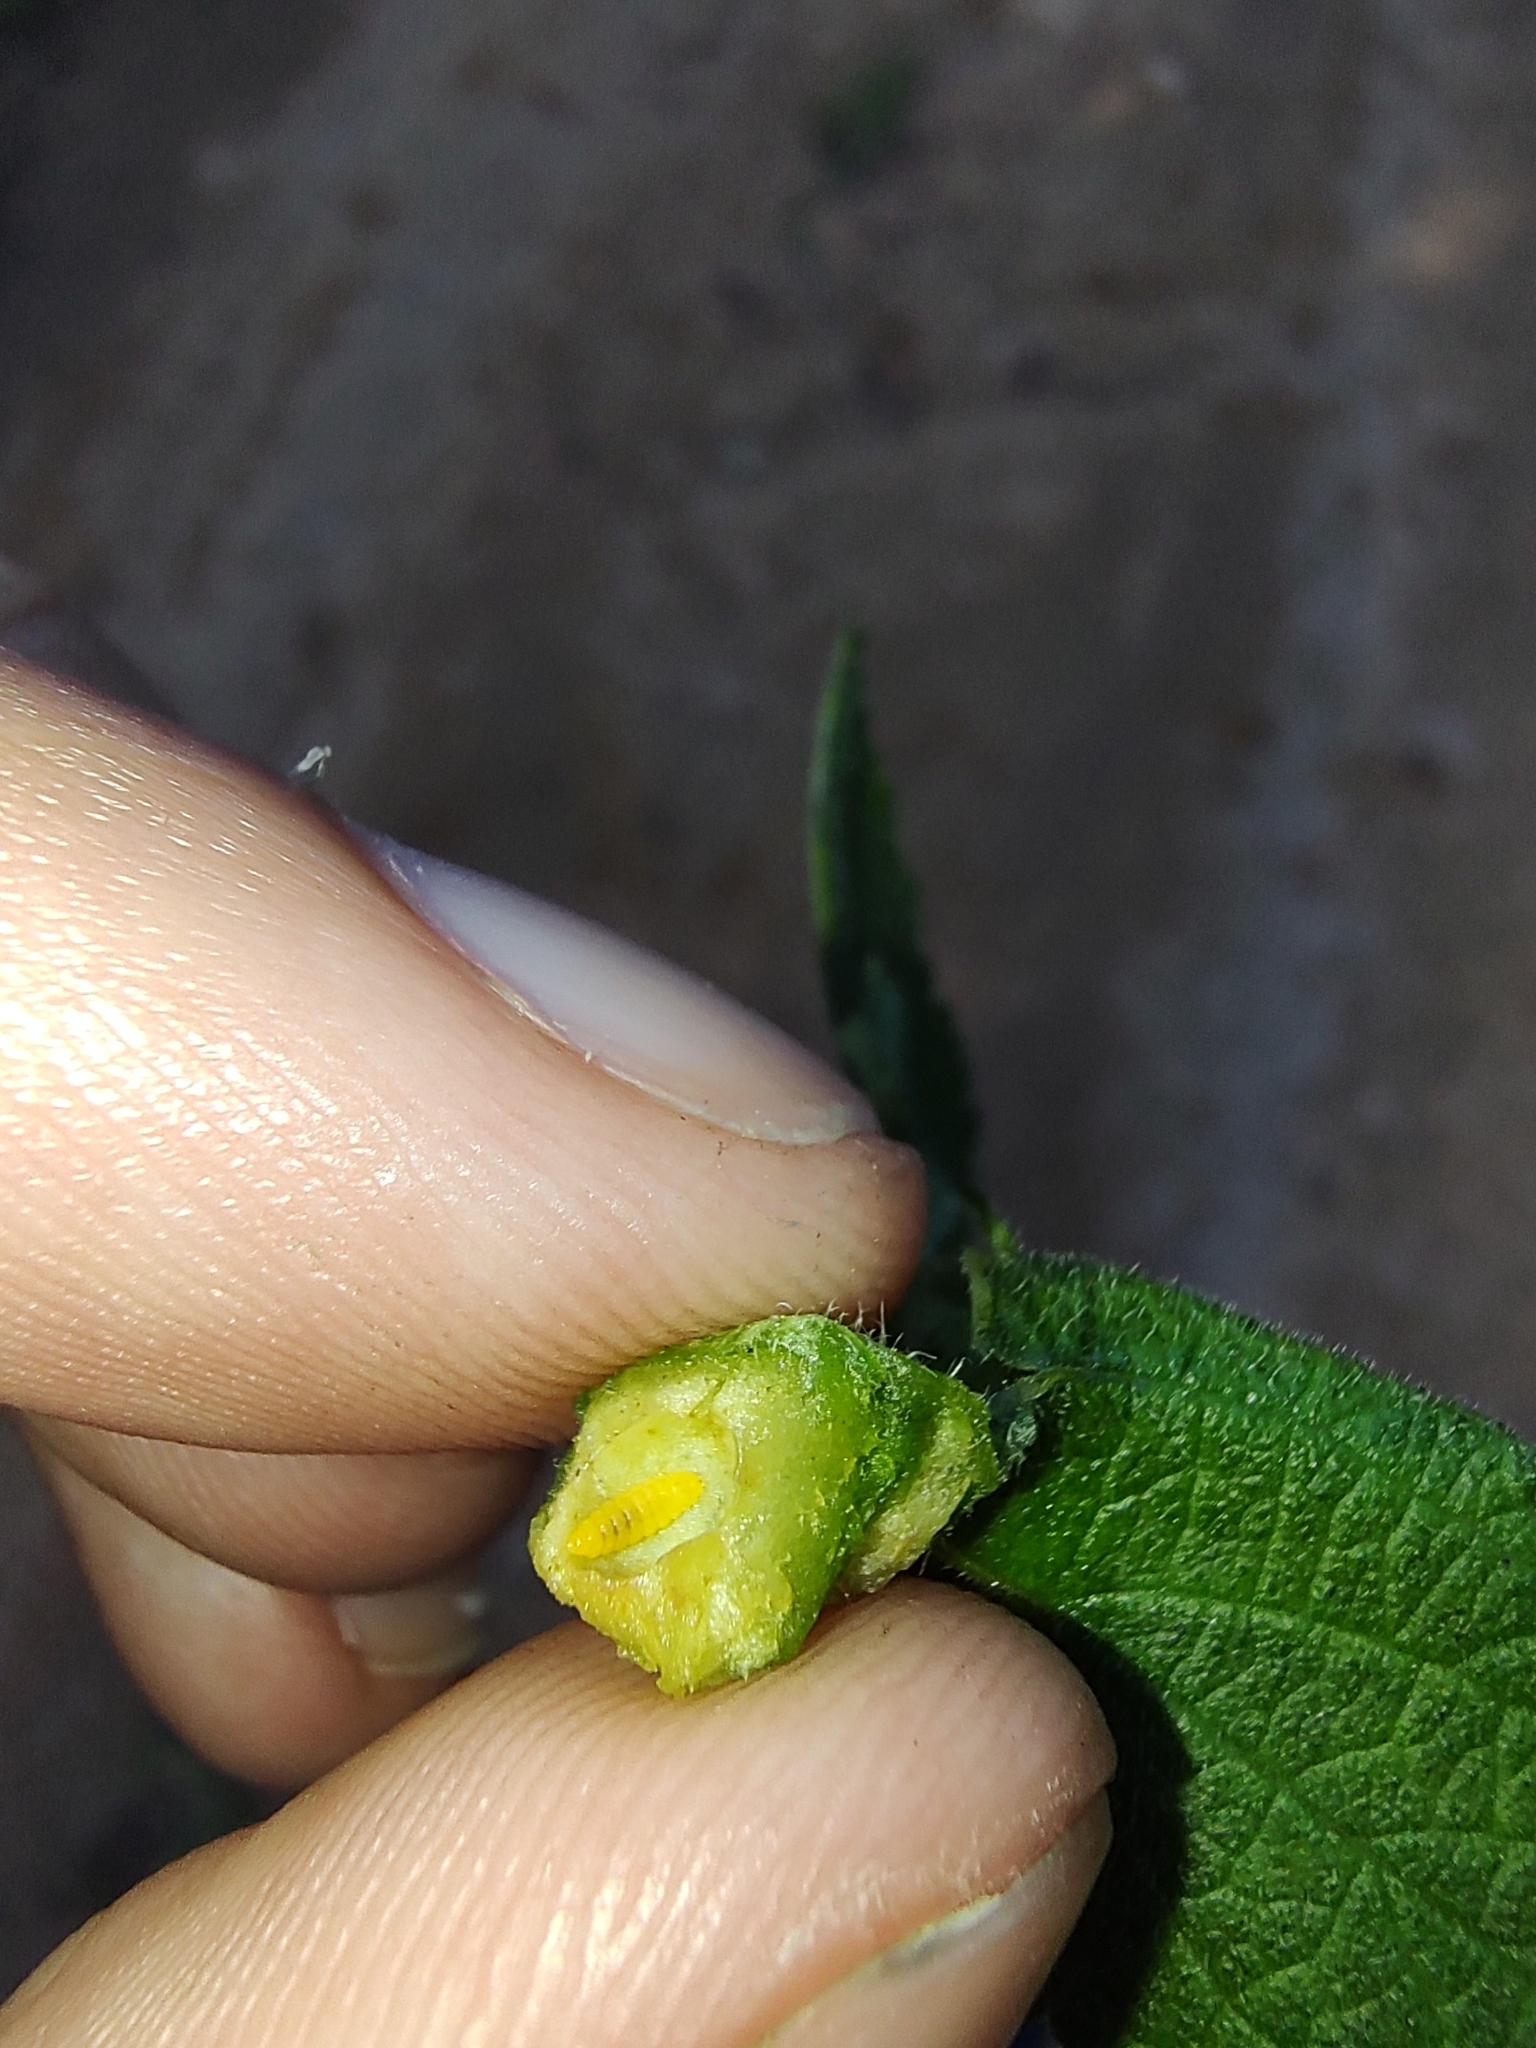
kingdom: Animalia
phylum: Arthropoda
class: Insecta
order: Diptera
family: Cecidomyiidae
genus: Schismatodiplosis
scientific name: Schismatodiplosis
